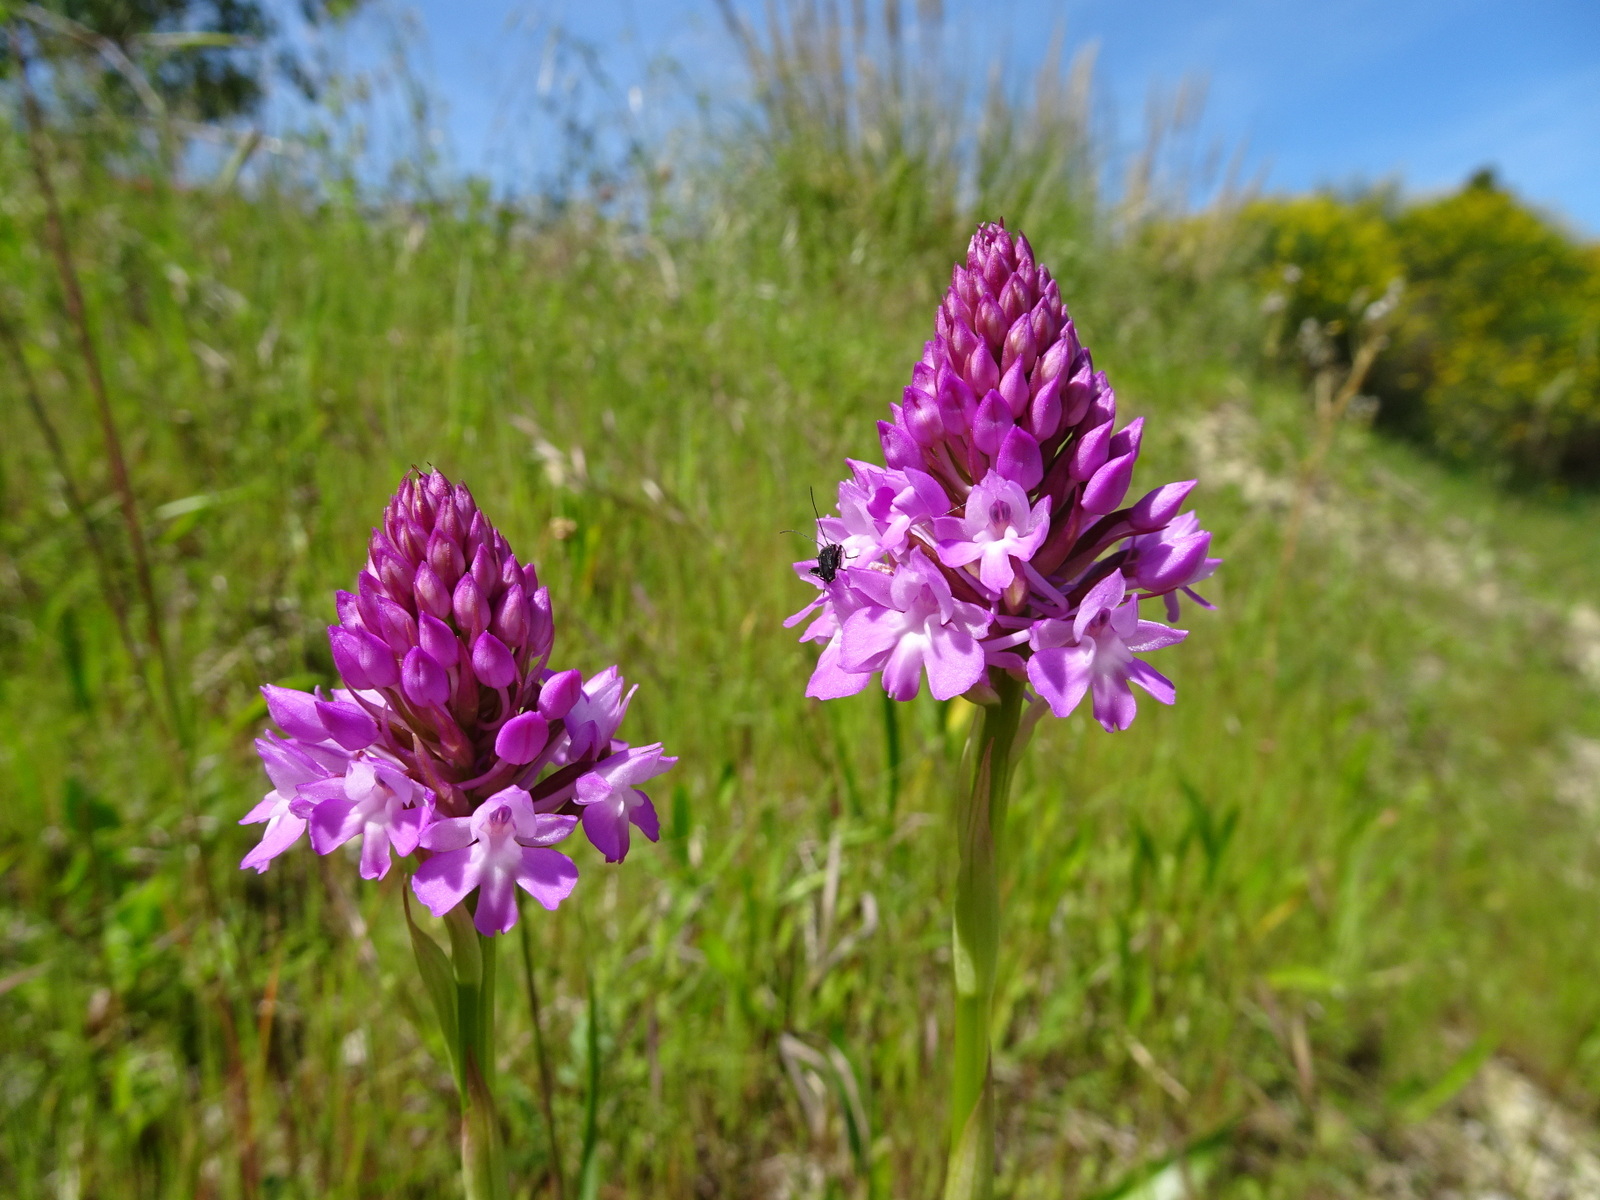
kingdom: Plantae
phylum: Tracheophyta
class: Liliopsida
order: Asparagales
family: Orchidaceae
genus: Anacamptis
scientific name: Anacamptis pyramidalis
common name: Pyramidal orchid
